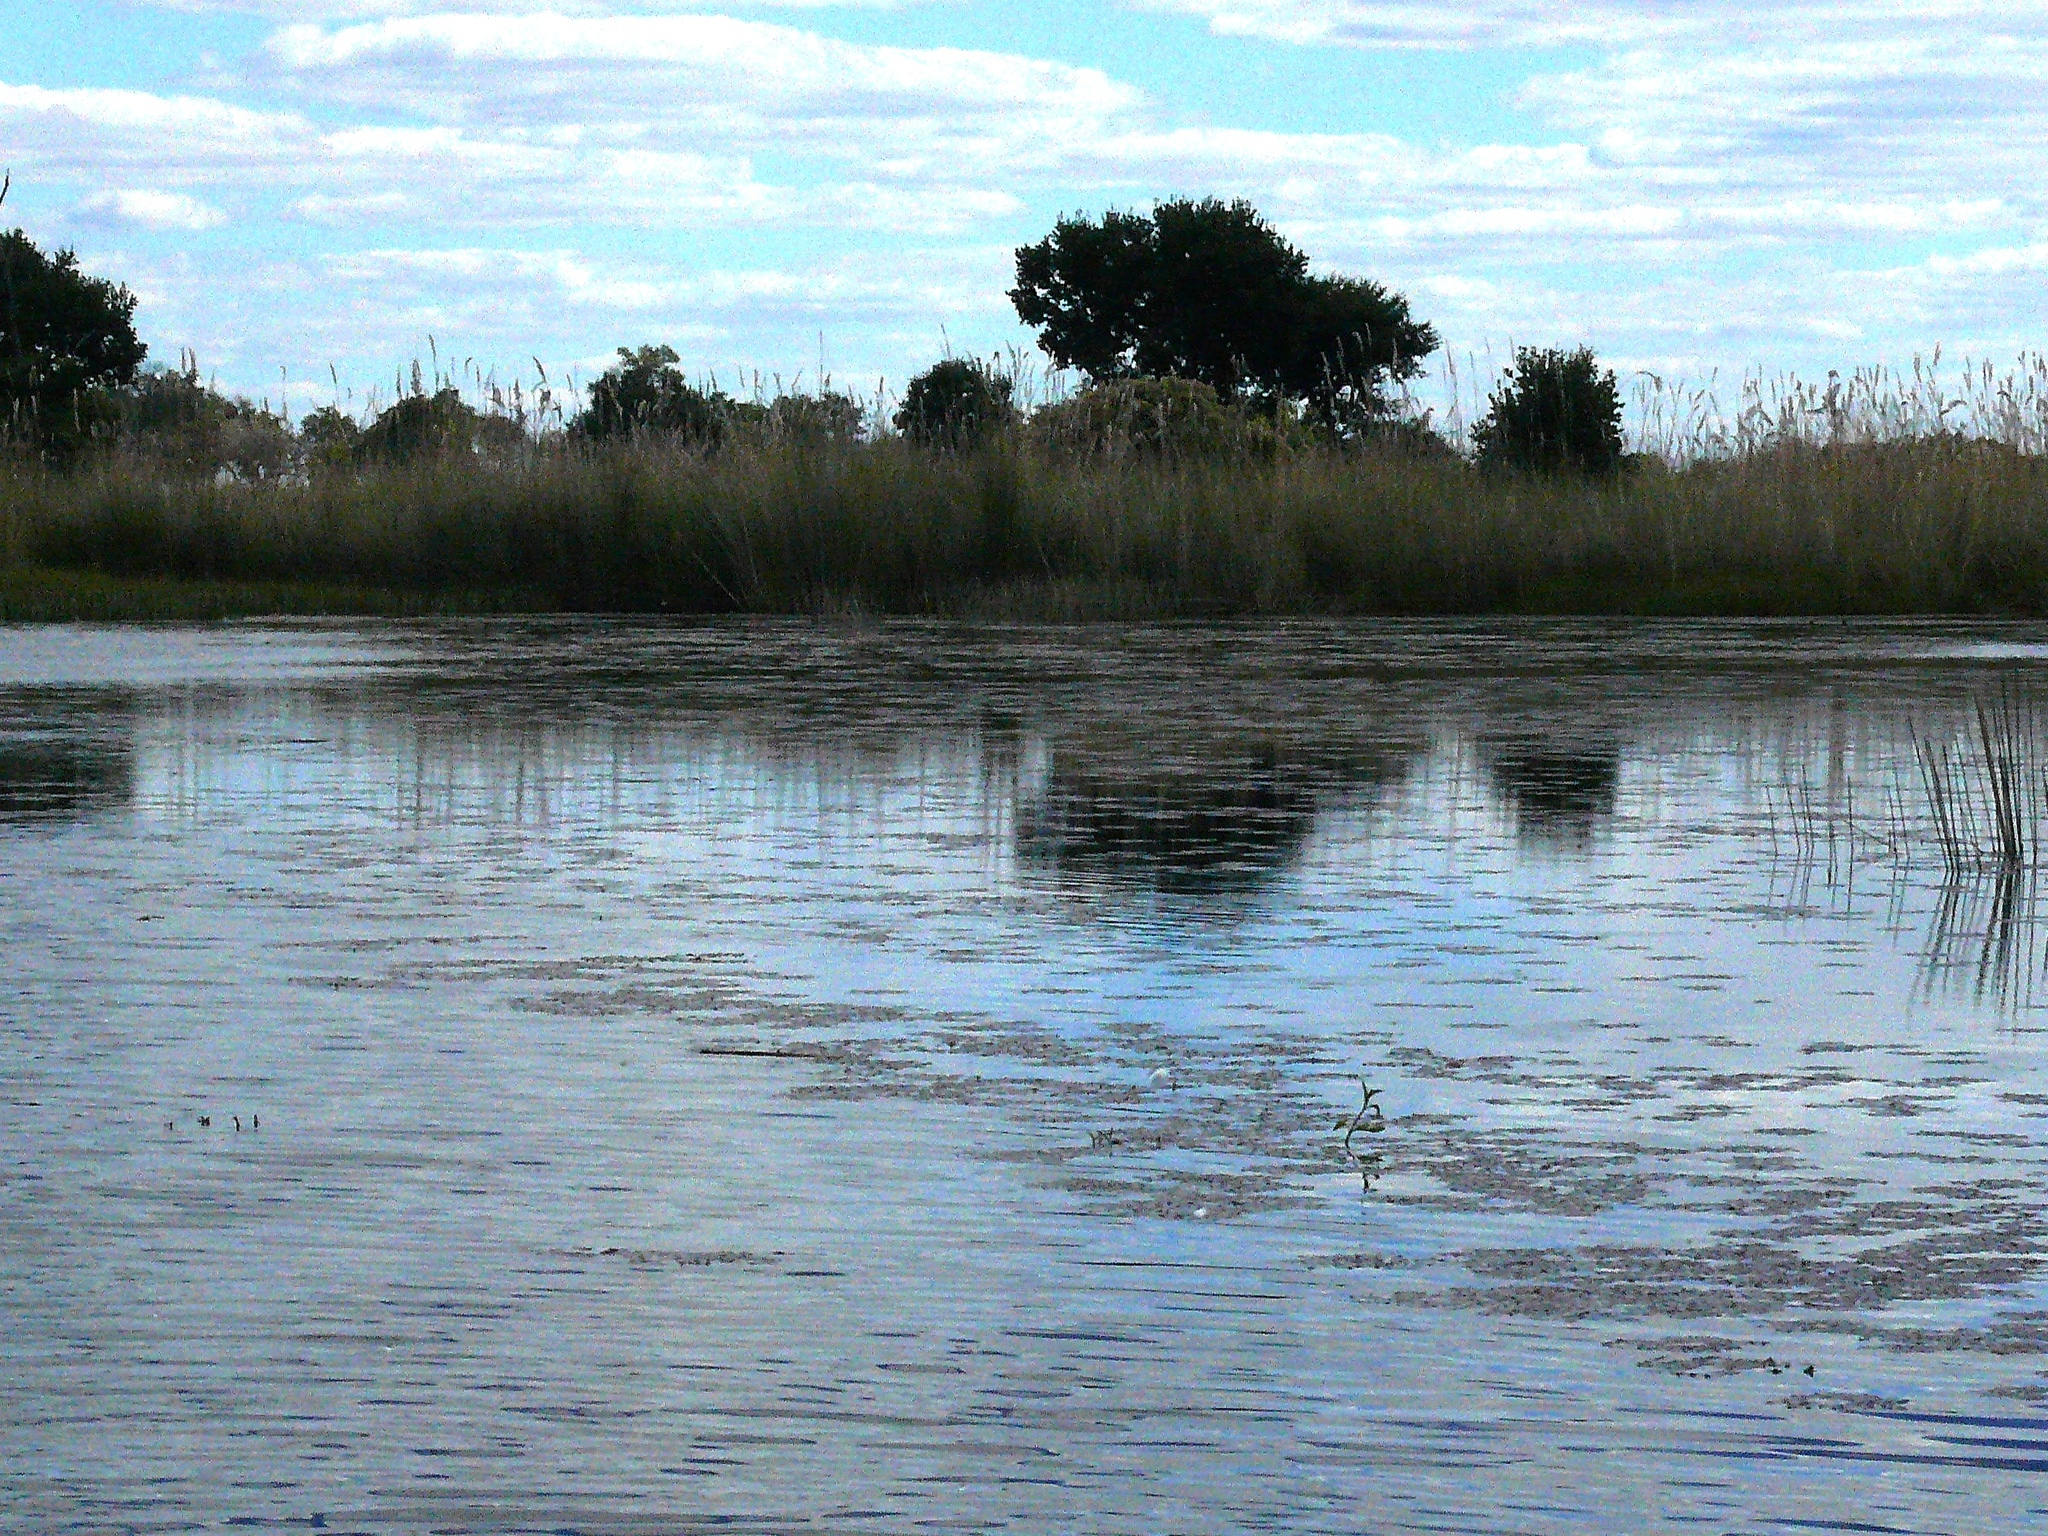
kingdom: Plantae
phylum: Tracheophyta
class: Magnoliopsida
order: Myrtales
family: Lythraceae
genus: Trapa
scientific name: Trapa natans
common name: Water chestnut
